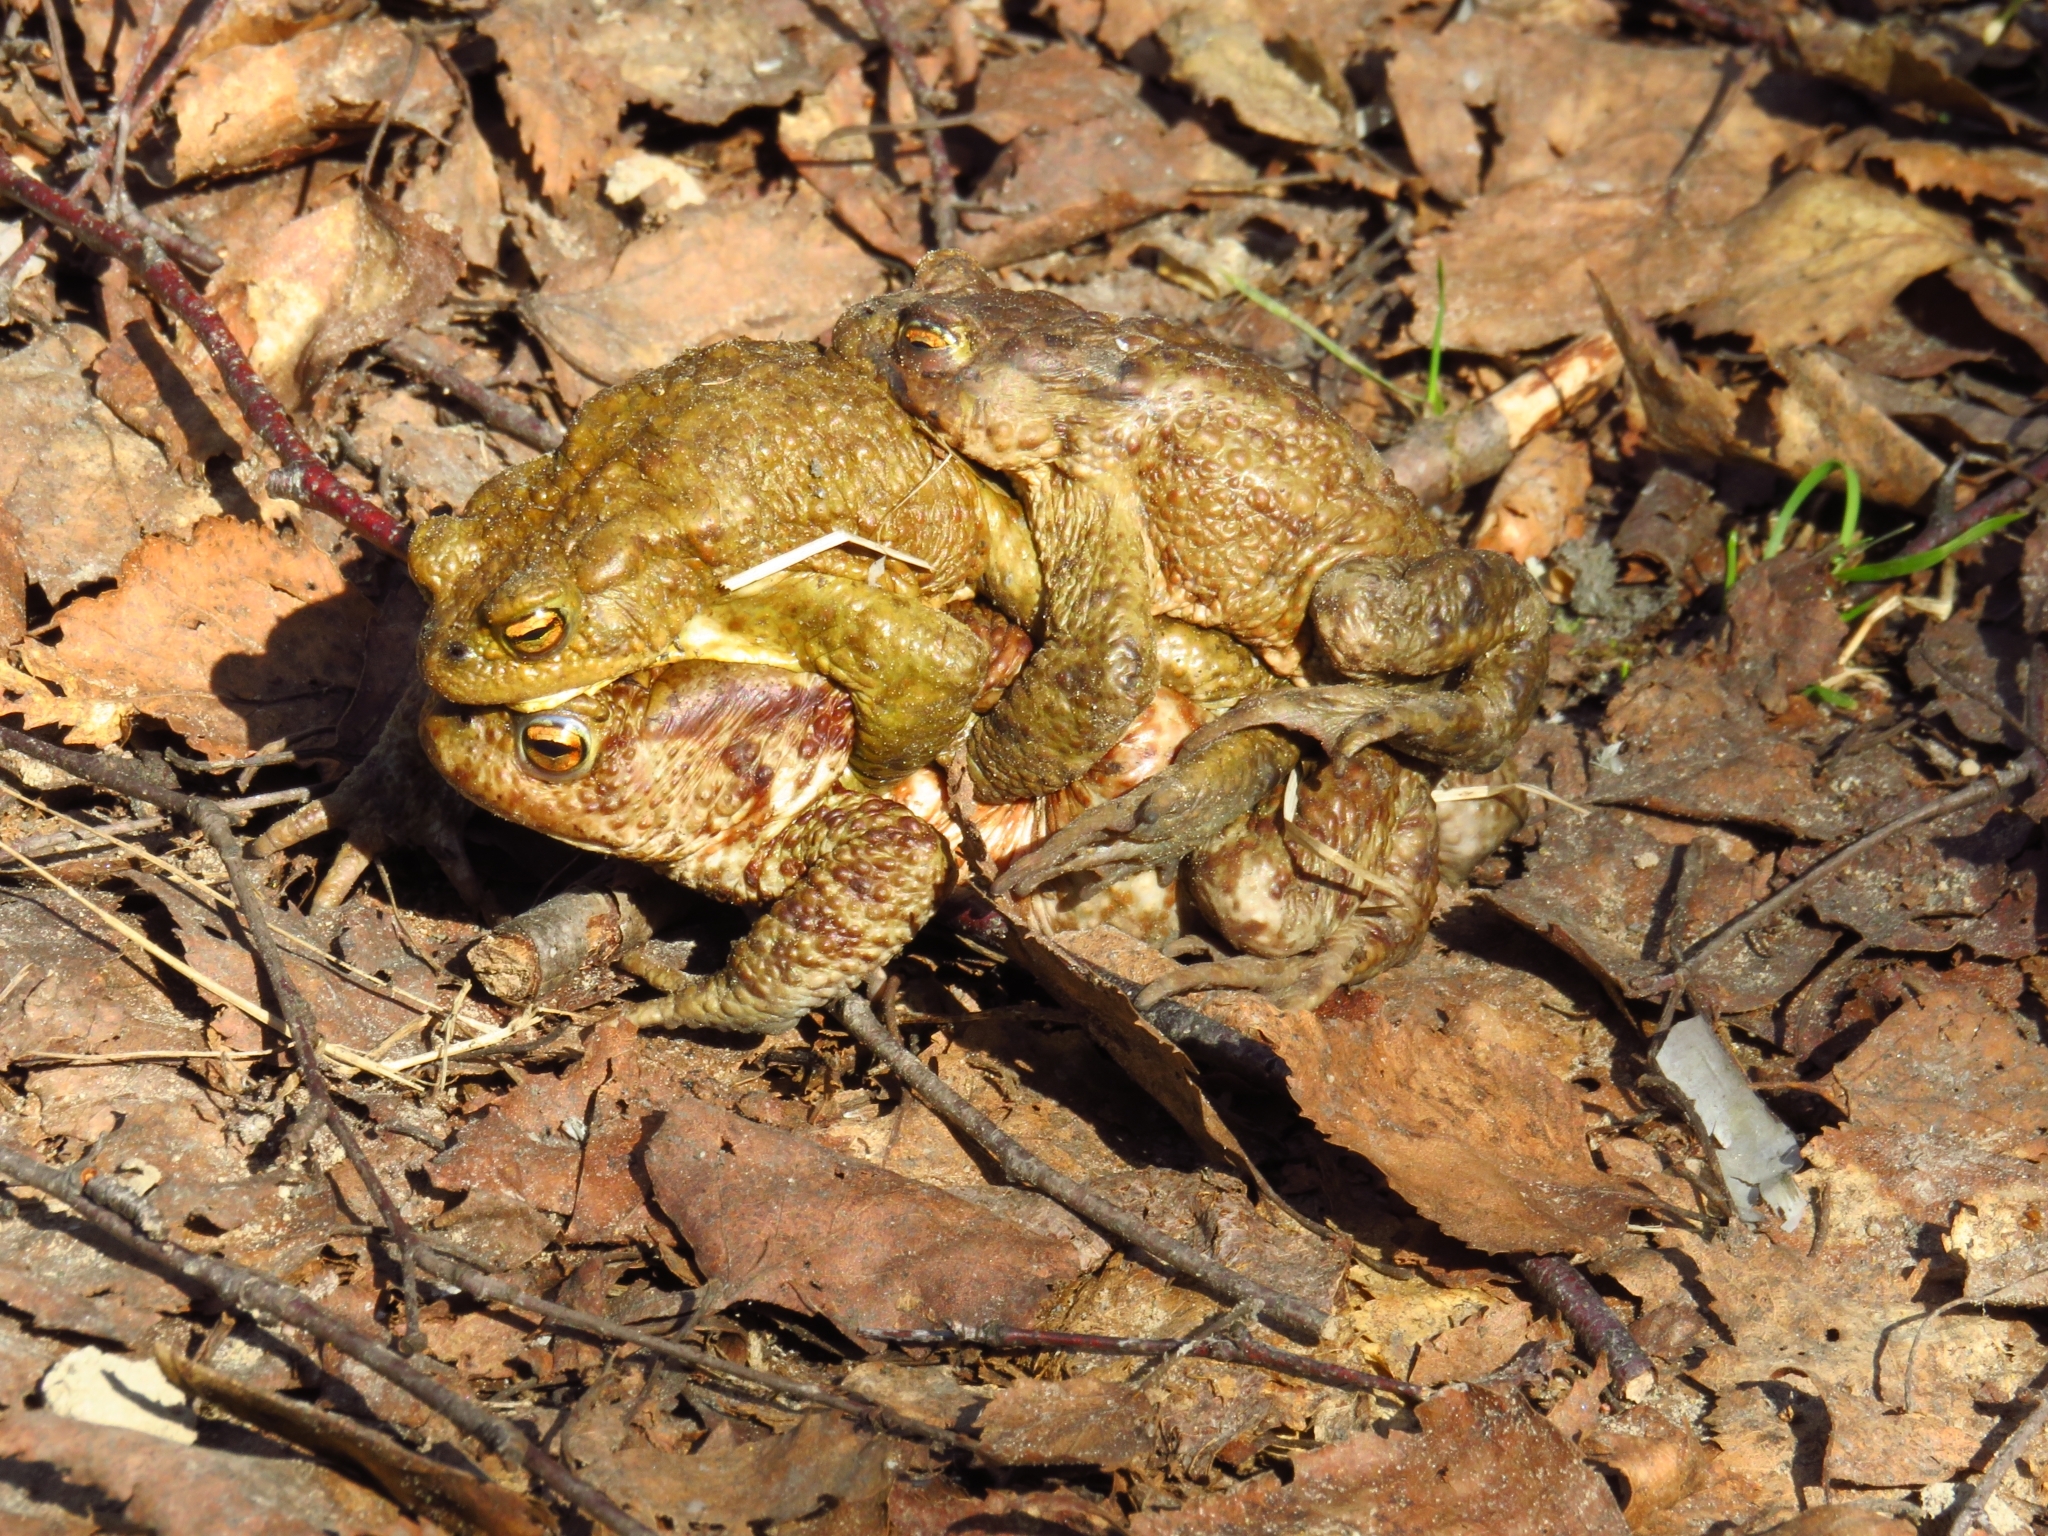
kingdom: Animalia
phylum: Chordata
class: Amphibia
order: Anura
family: Bufonidae
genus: Bufo
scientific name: Bufo bufo
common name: Common toad
